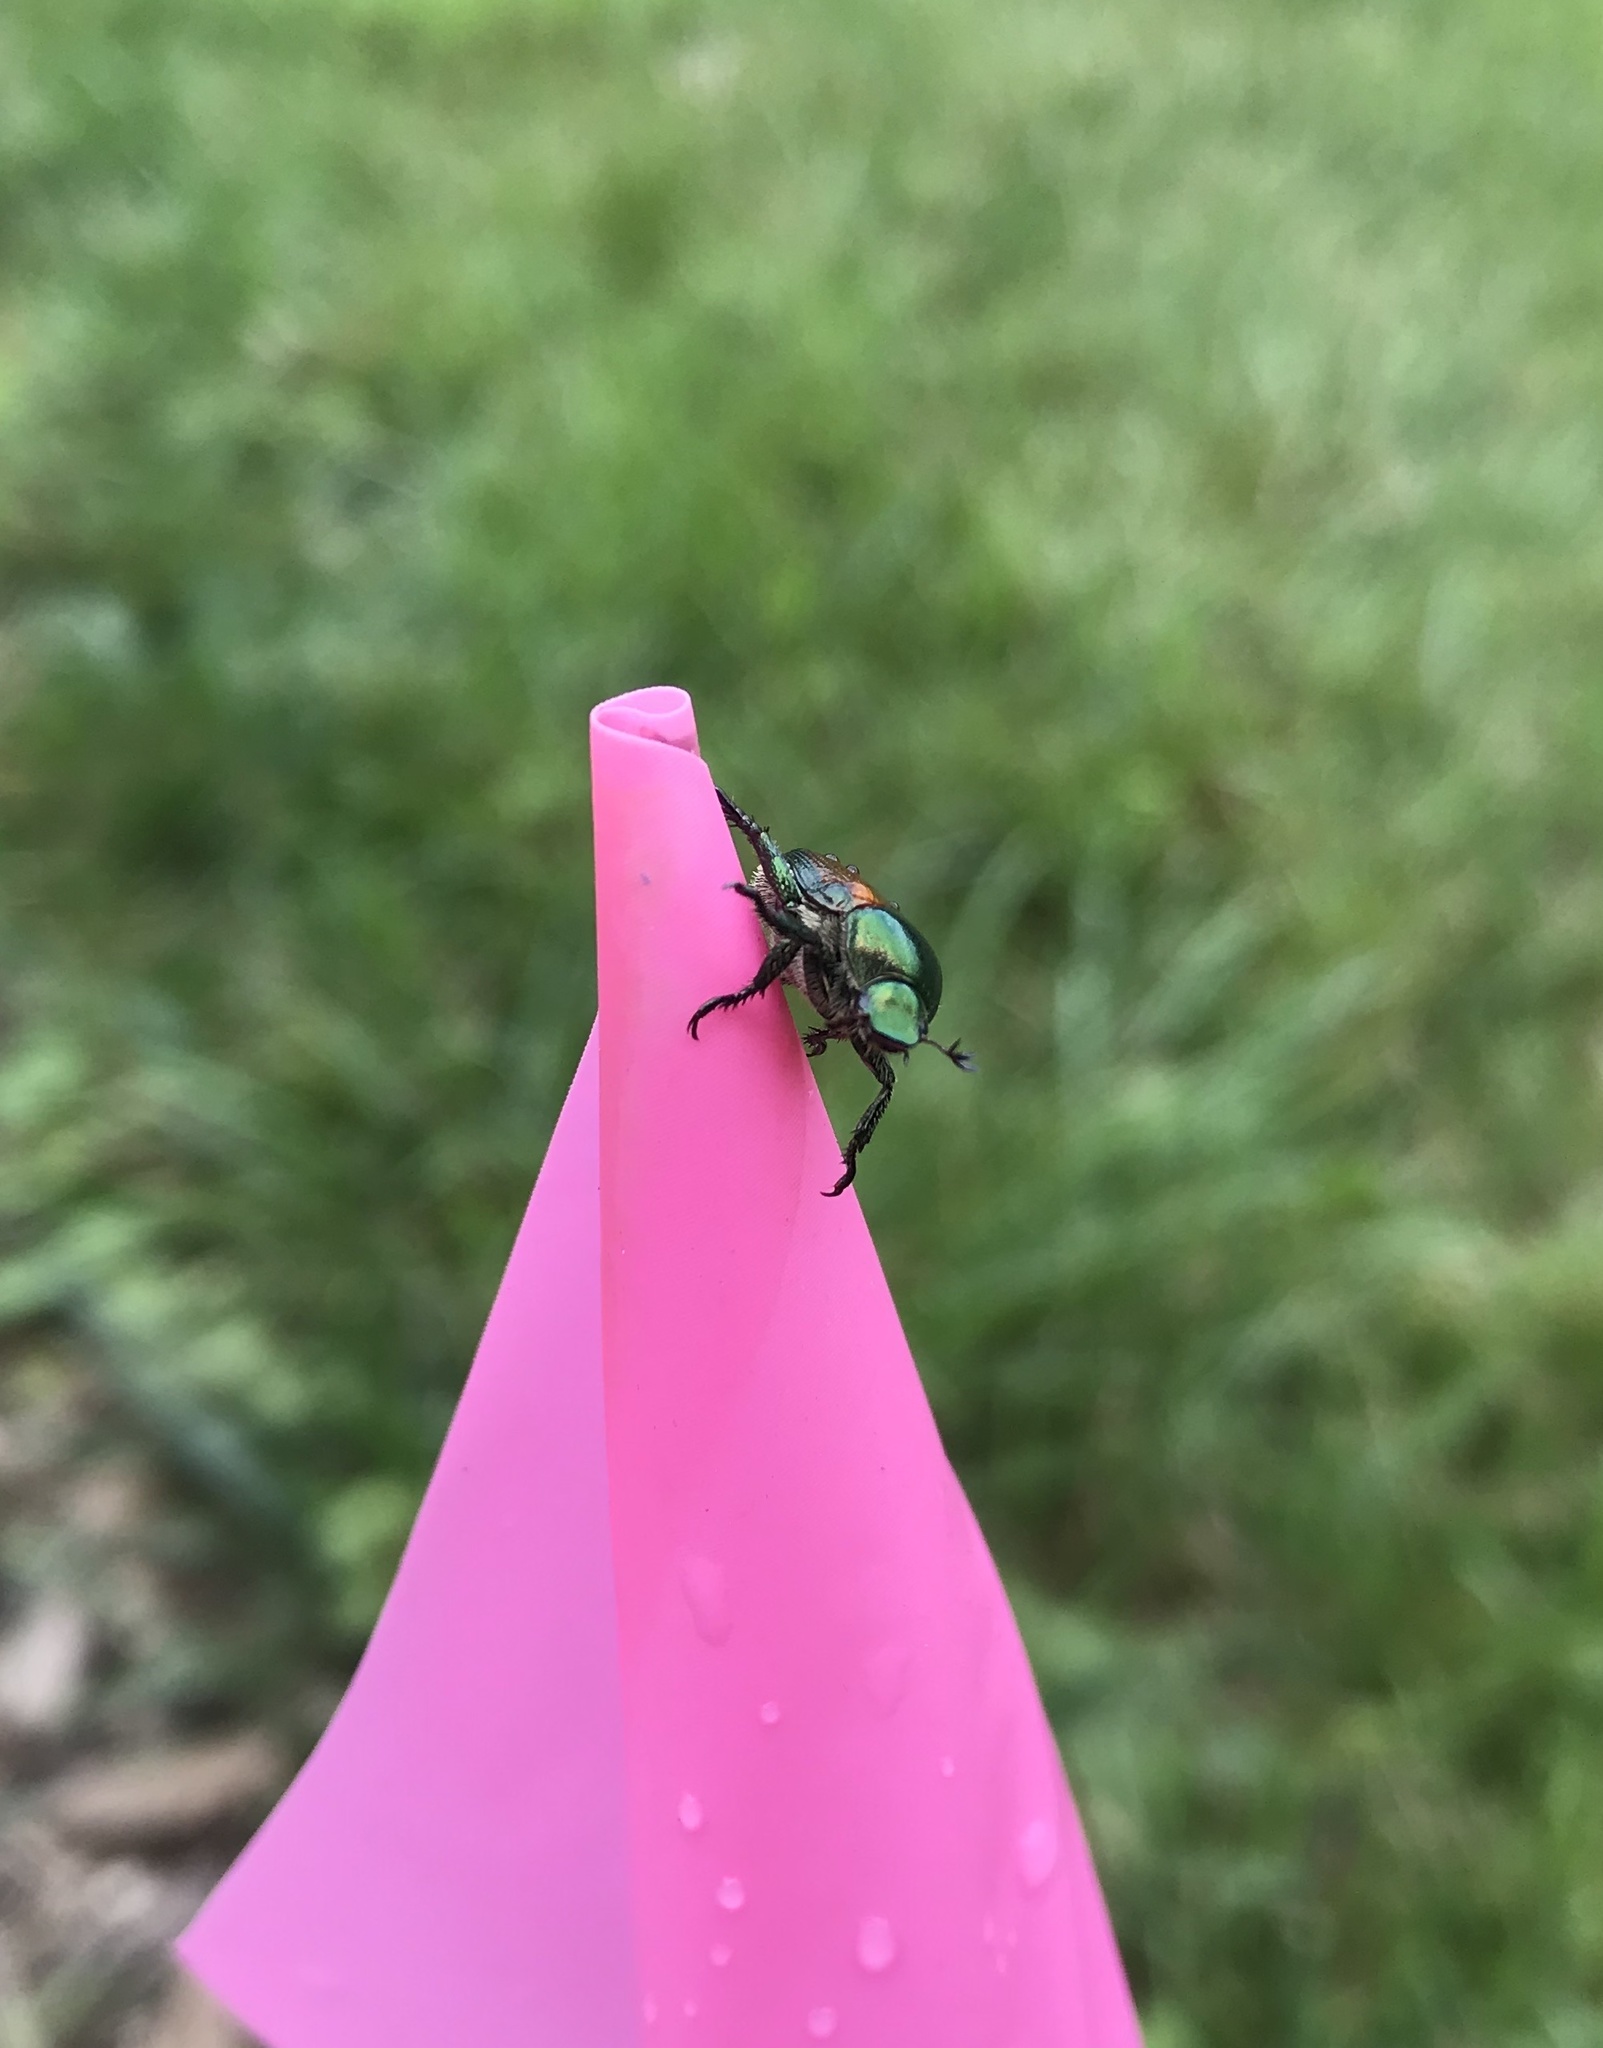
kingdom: Animalia
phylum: Arthropoda
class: Insecta
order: Coleoptera
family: Scarabaeidae
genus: Popillia
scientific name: Popillia japonica
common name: Japanese beetle
